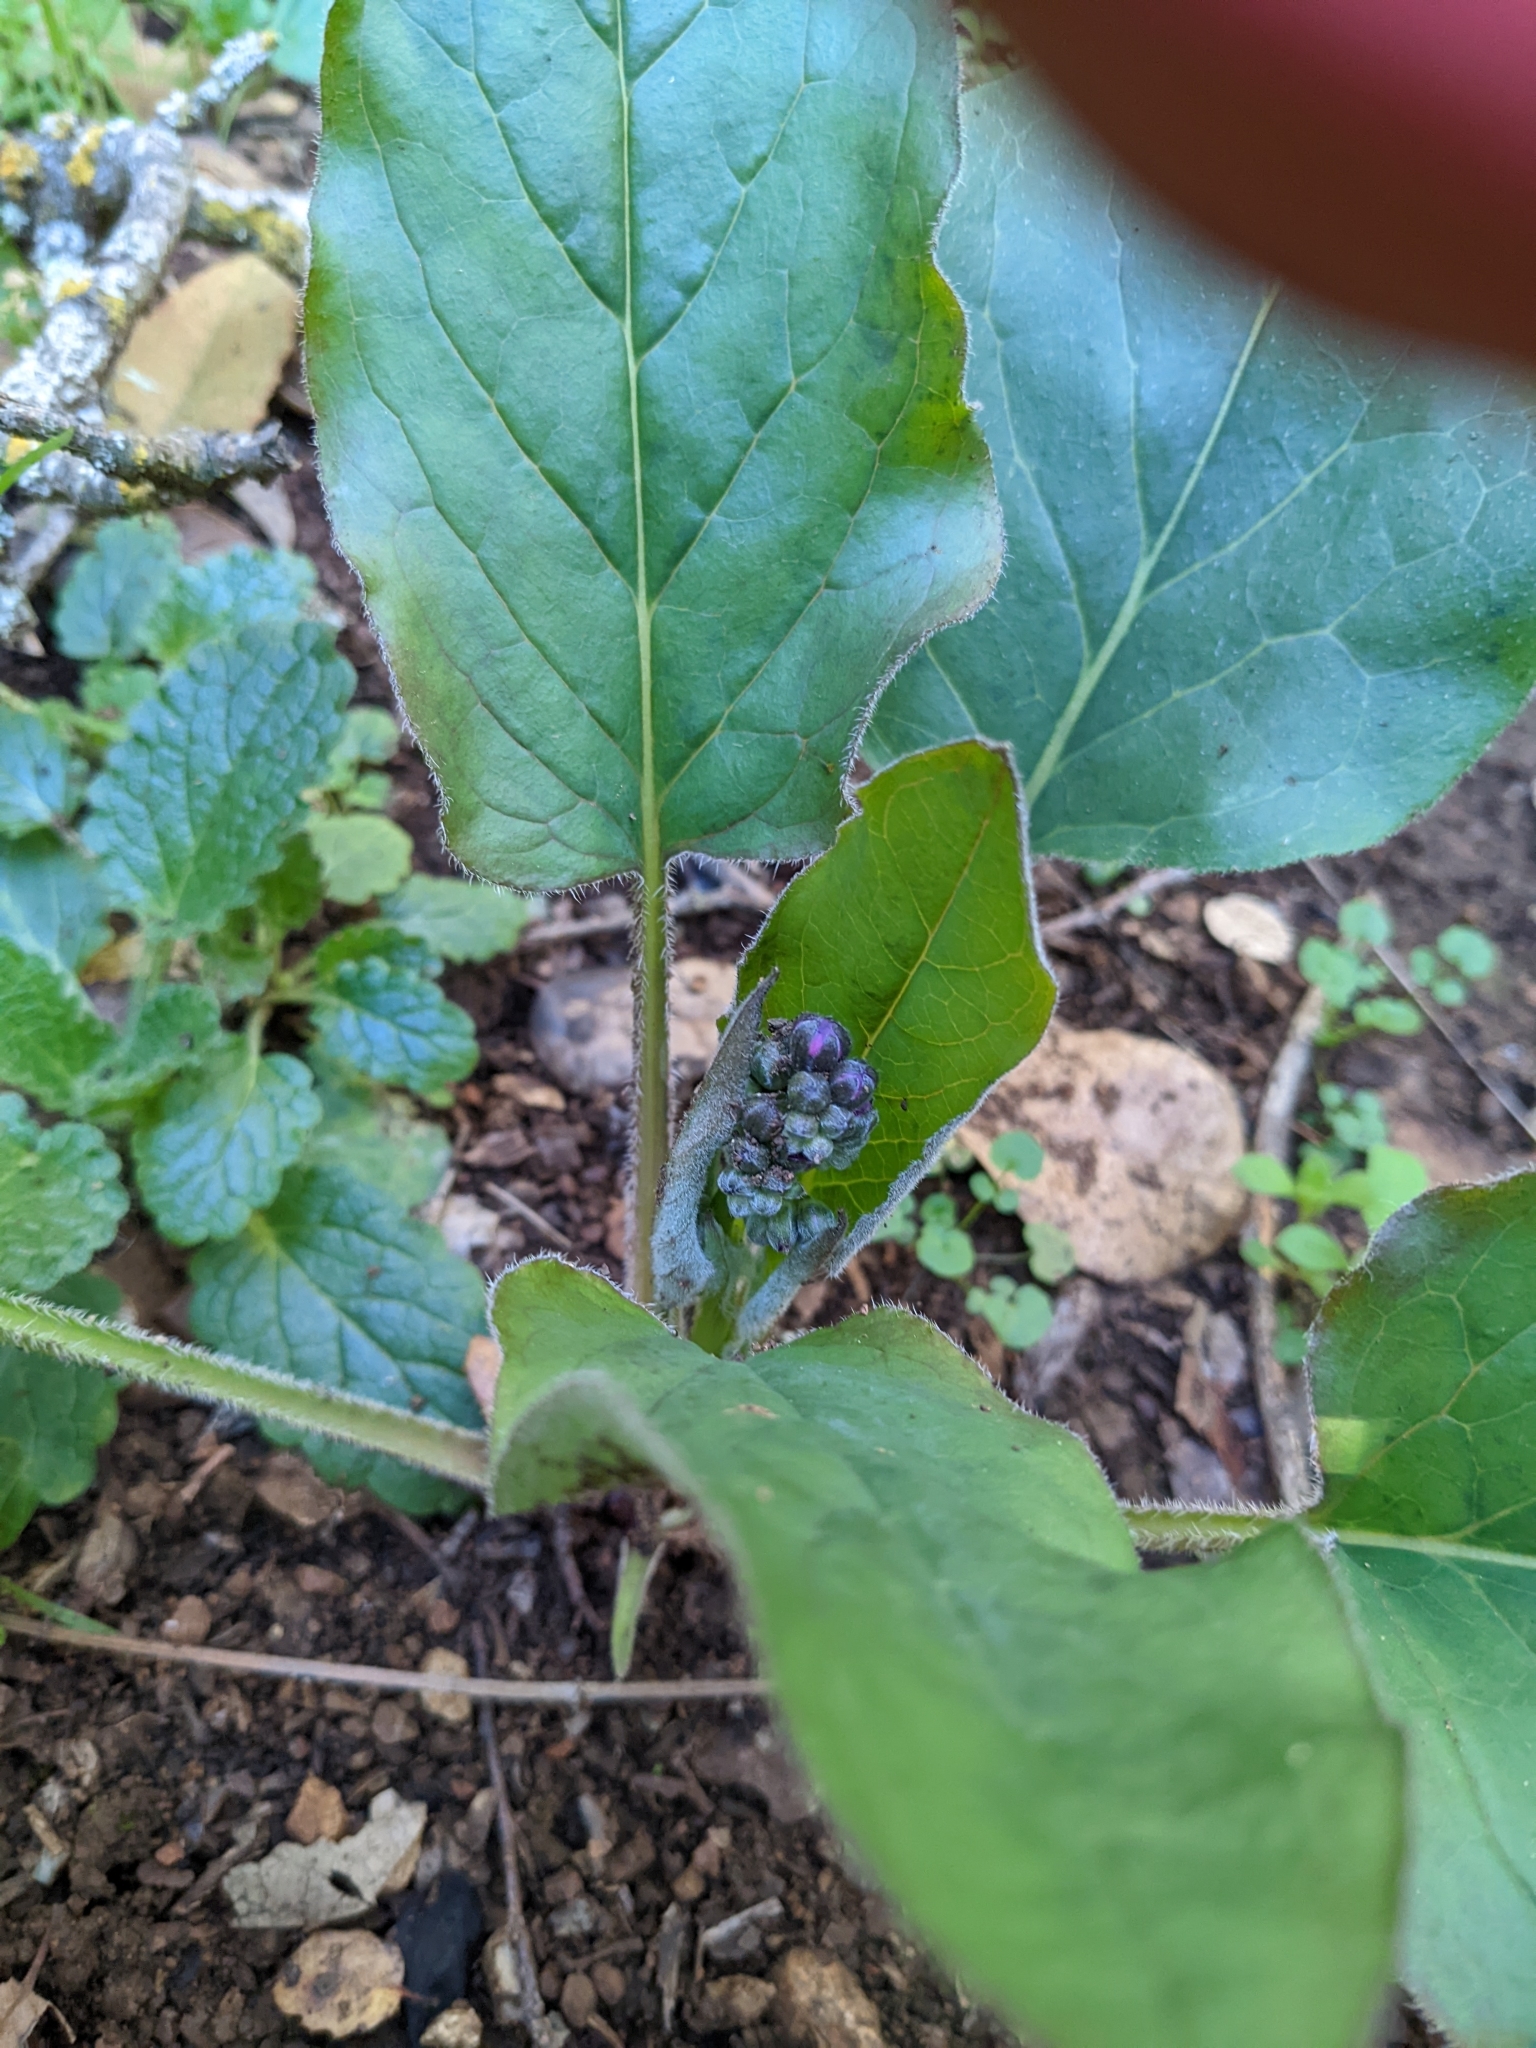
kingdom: Plantae
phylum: Tracheophyta
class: Magnoliopsida
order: Boraginales
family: Boraginaceae
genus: Adelinia
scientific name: Adelinia grande
